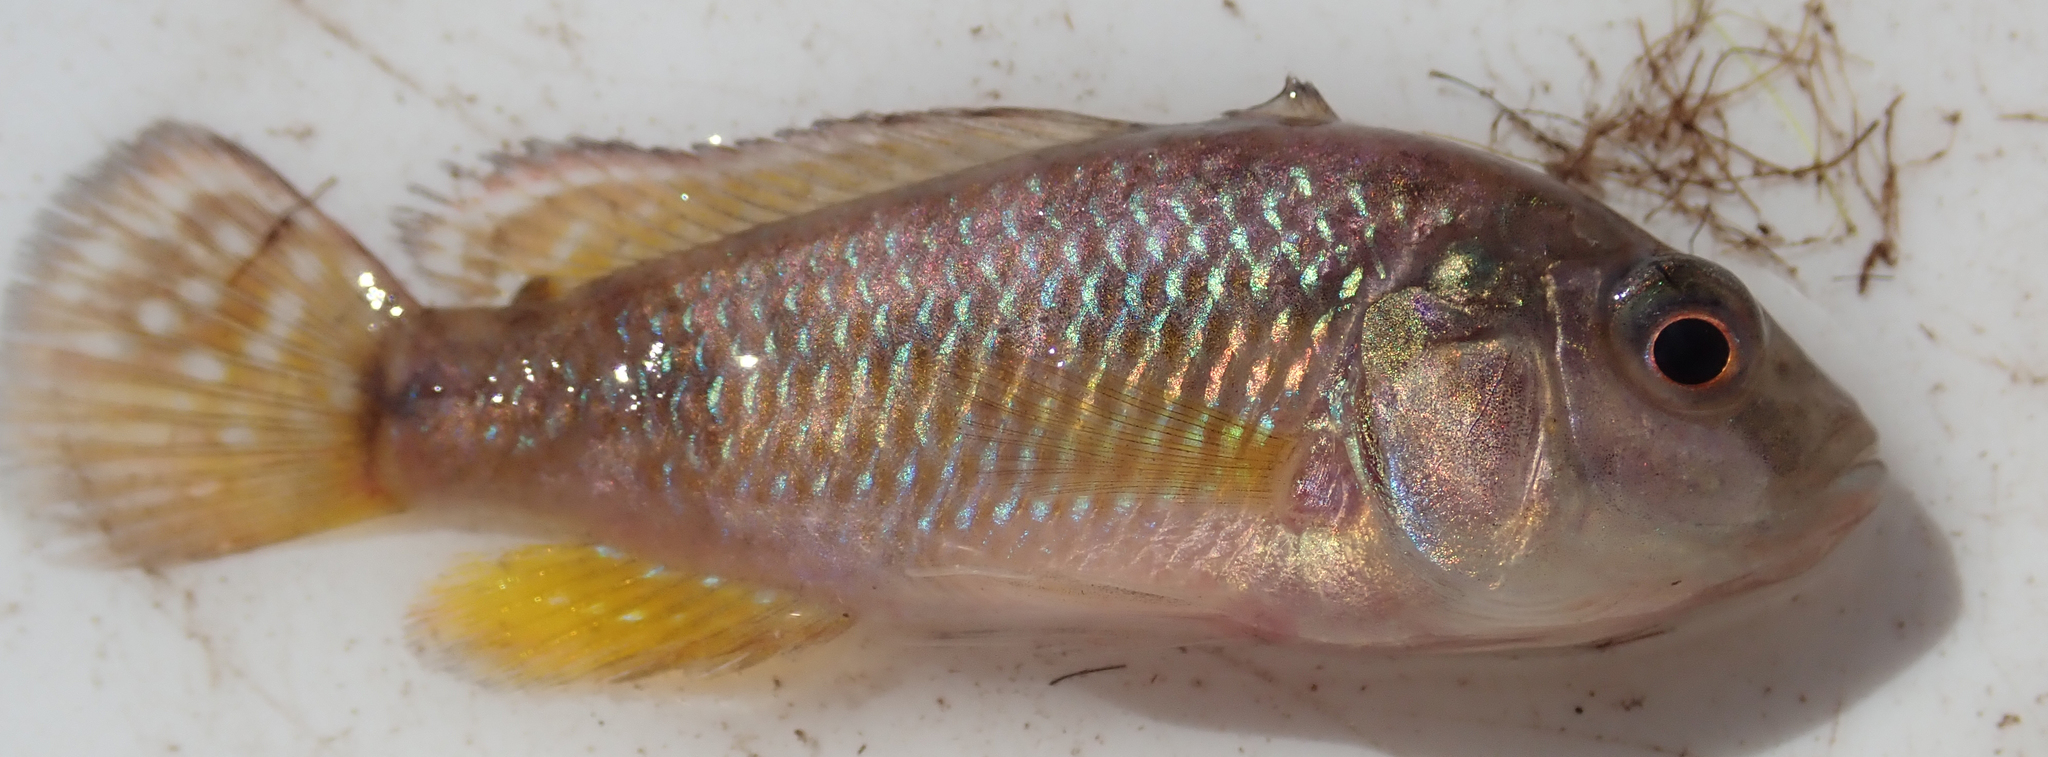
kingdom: Animalia
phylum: Chordata
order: Perciformes
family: Cichlidae
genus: Pseudocrenilabrus
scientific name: Pseudocrenilabrus philander
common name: Southern mouthbrooder
